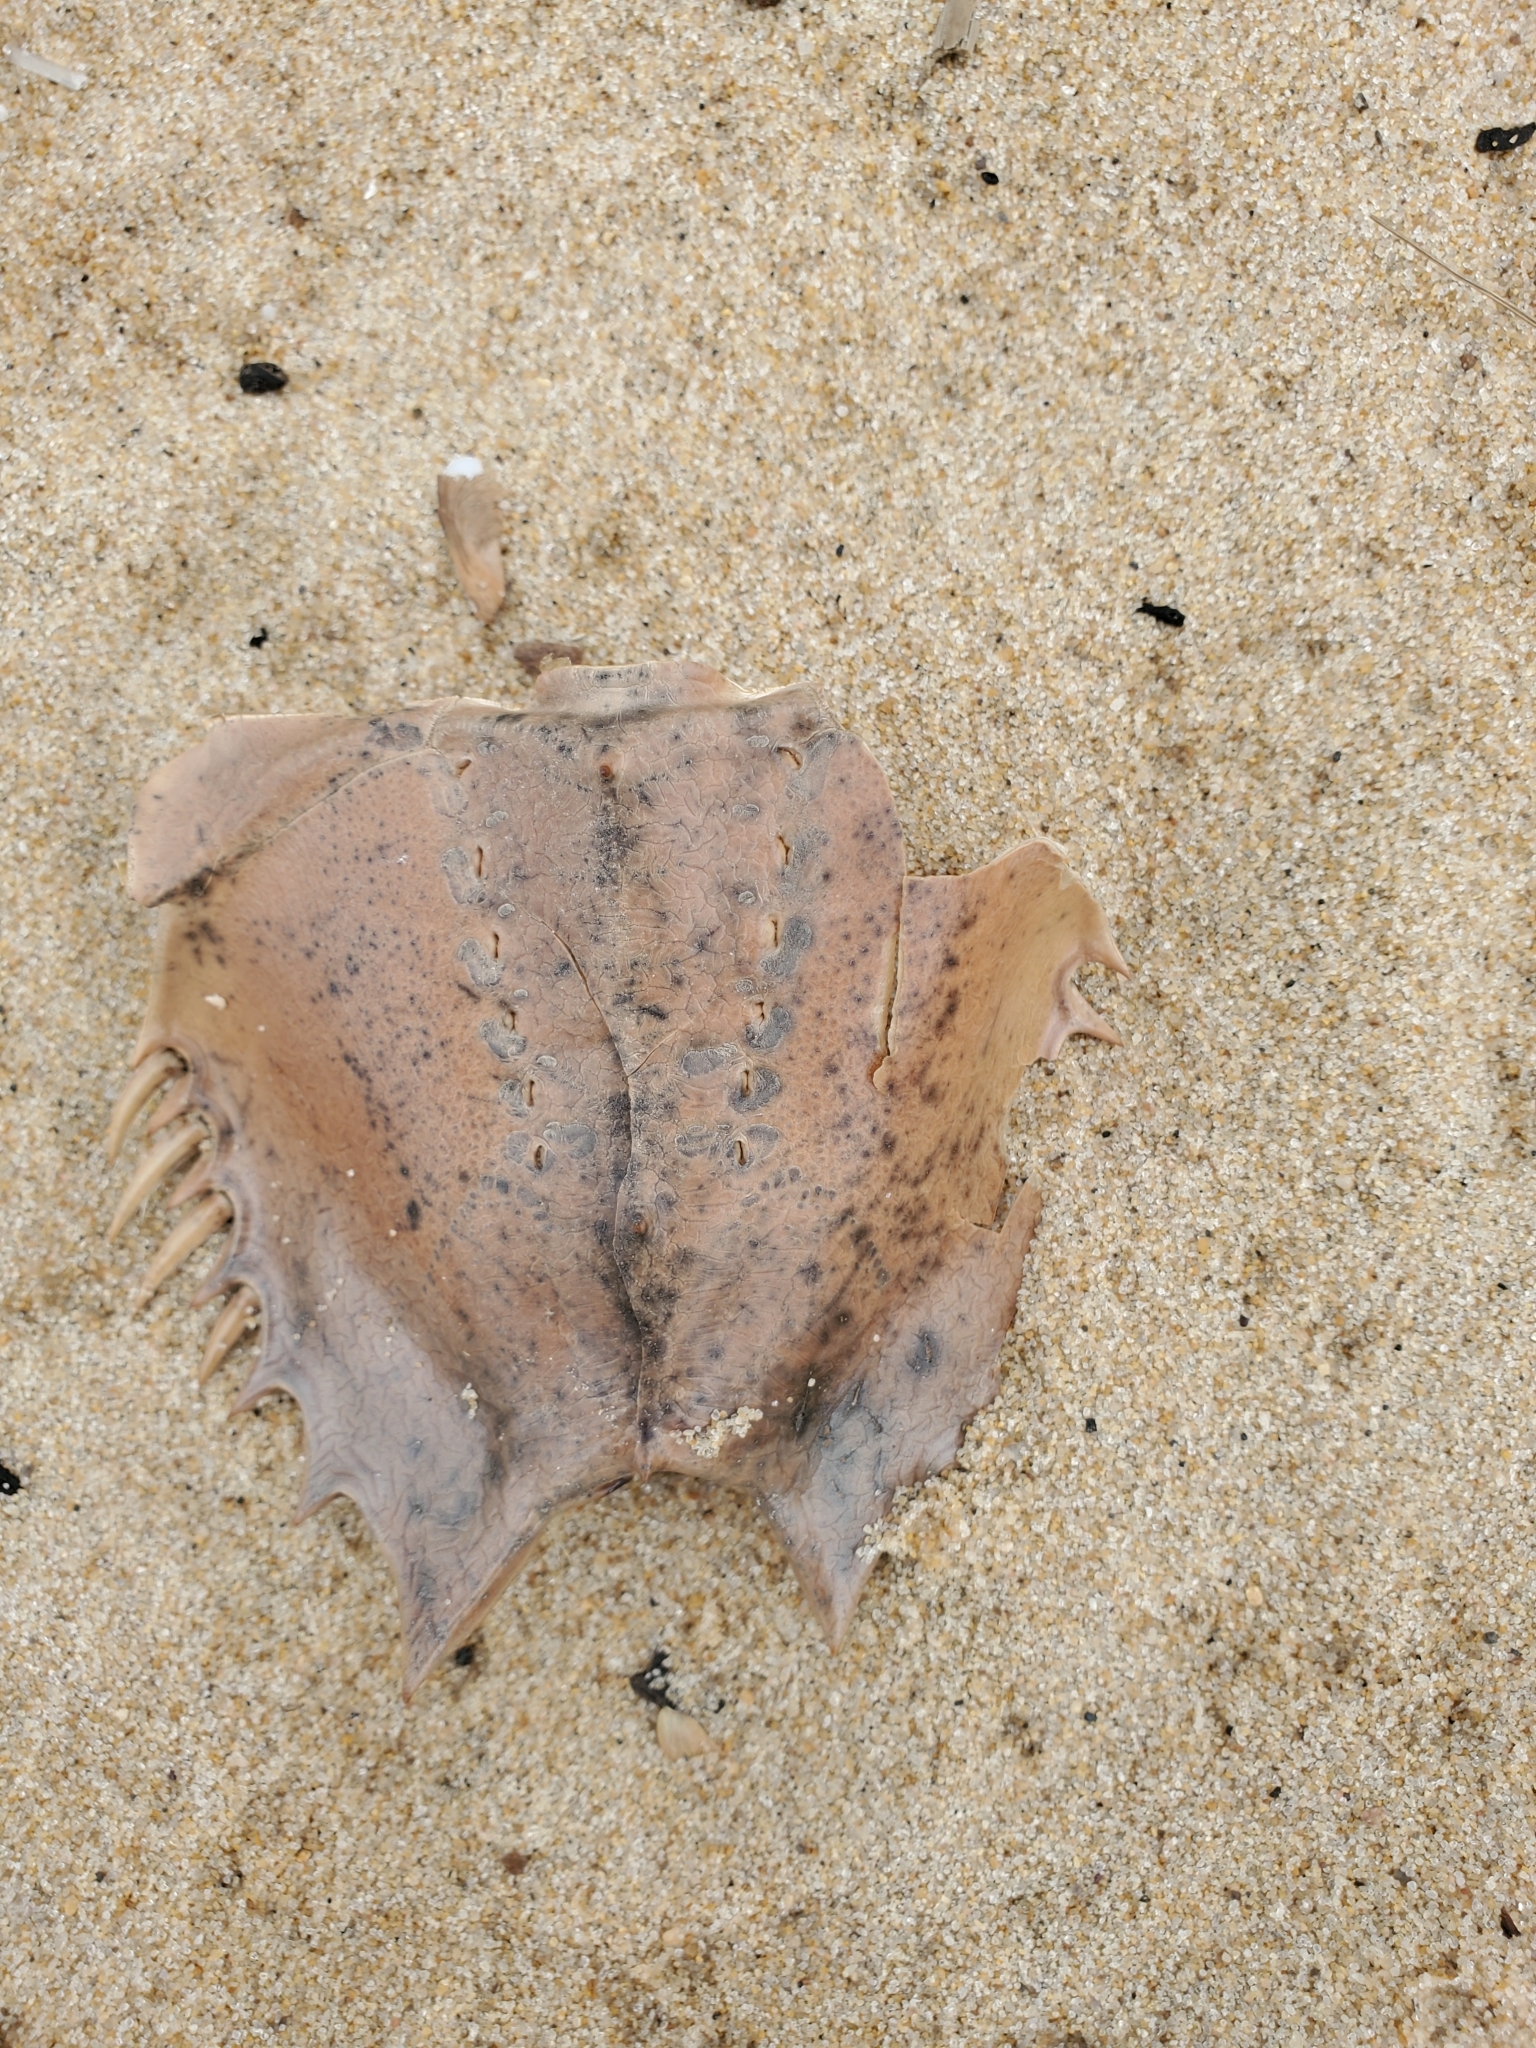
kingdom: Animalia
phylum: Arthropoda
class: Merostomata
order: Xiphosurida
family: Limulidae
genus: Limulus
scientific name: Limulus polyphemus
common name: Horseshoe crab
